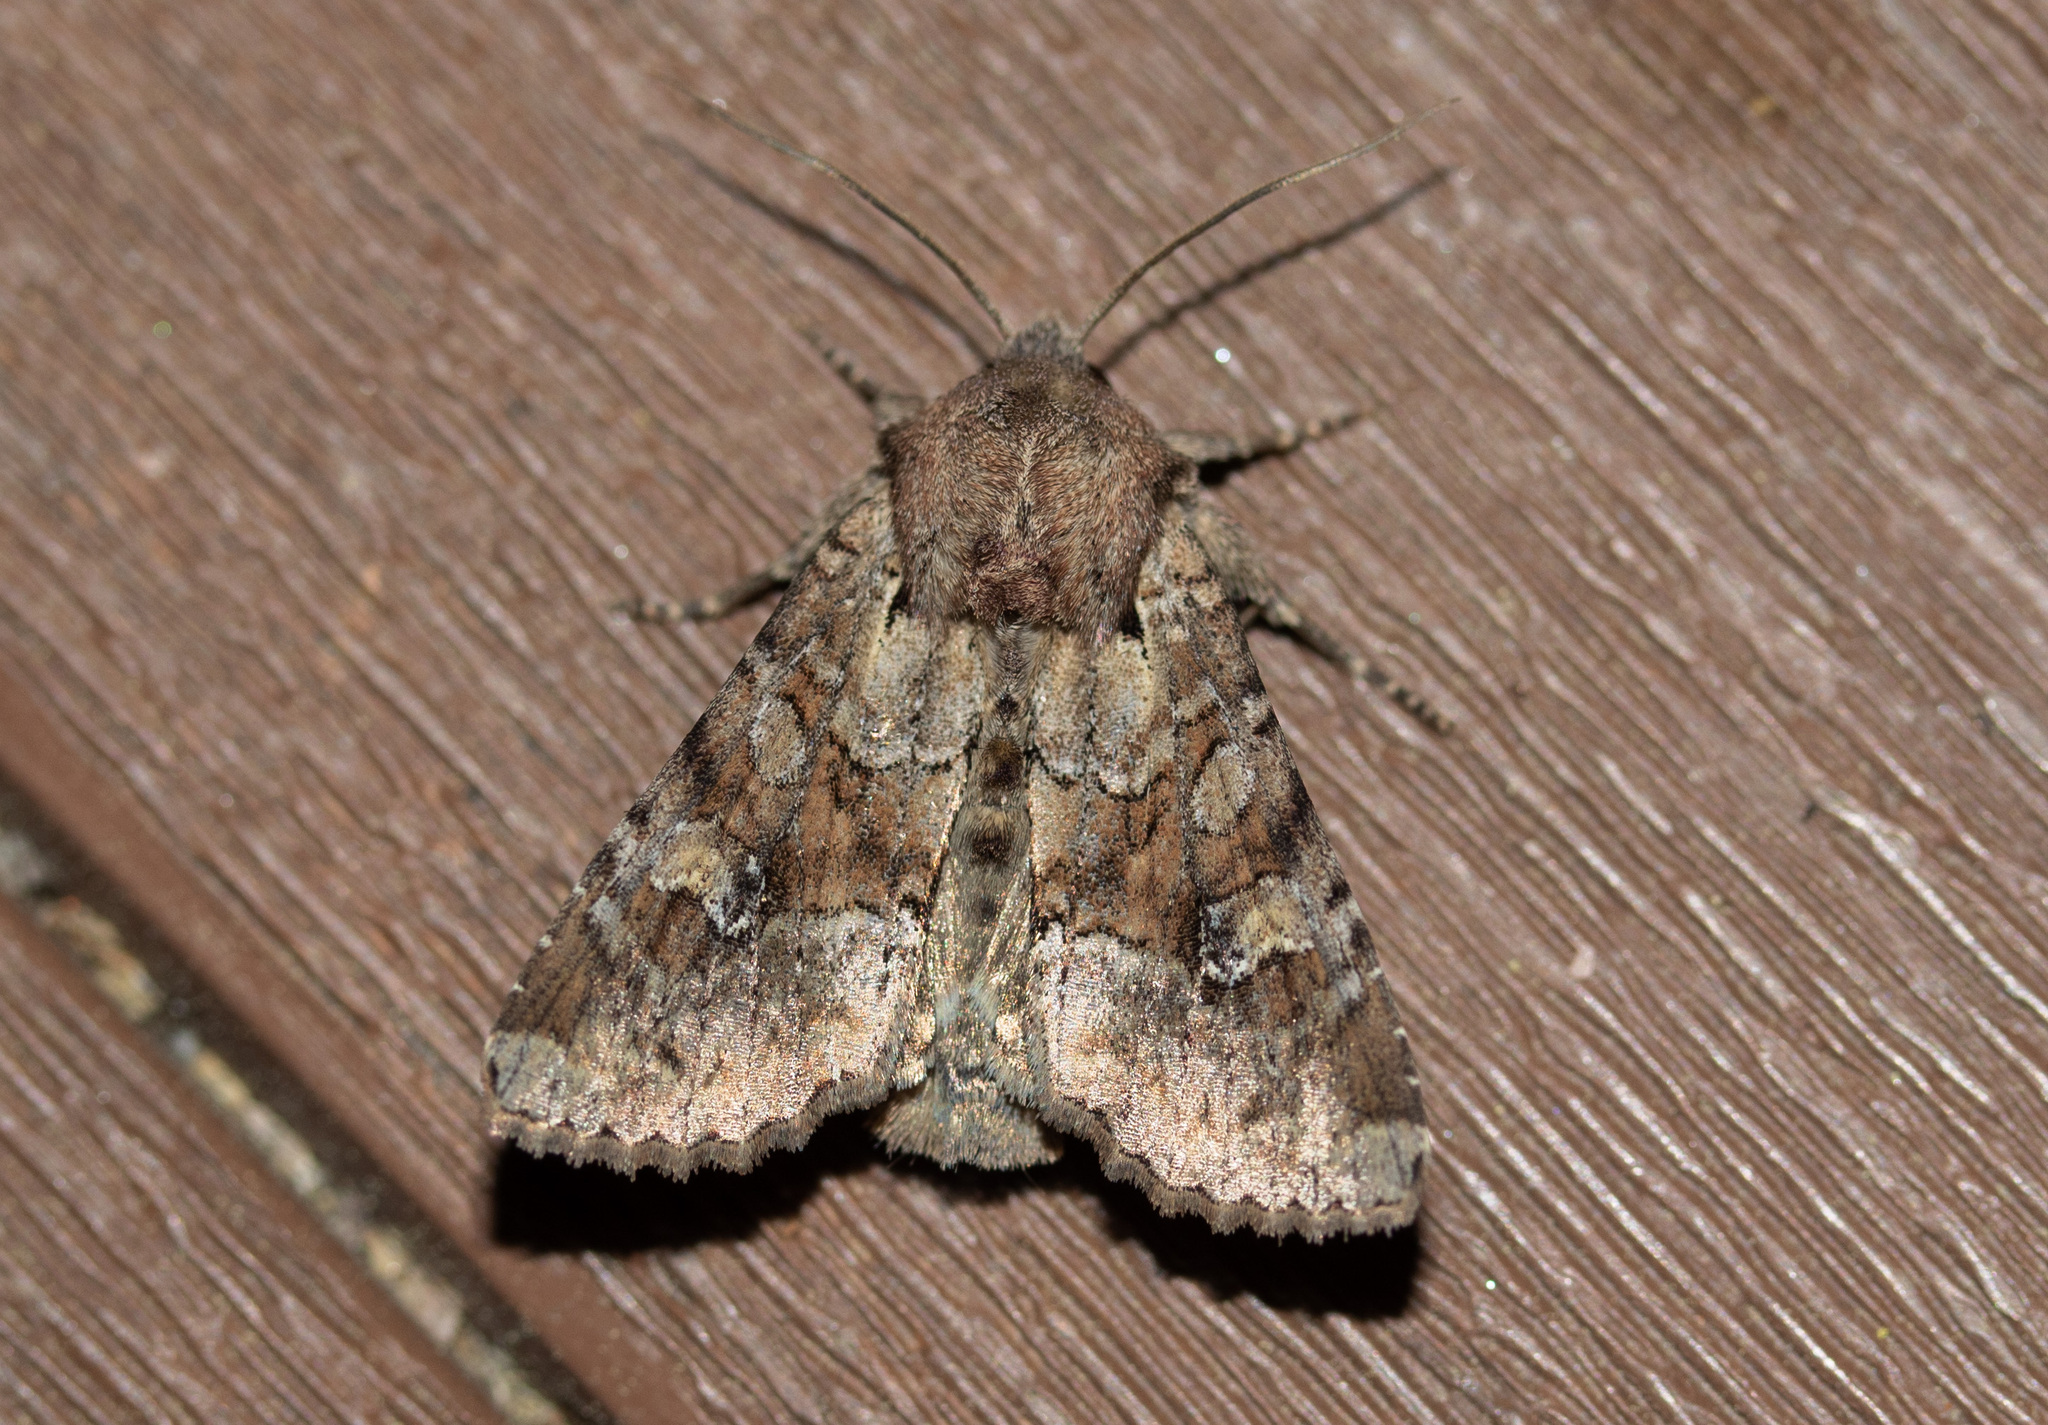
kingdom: Animalia
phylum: Arthropoda
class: Insecta
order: Lepidoptera
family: Noctuidae
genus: Apamea
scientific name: Apamea sordens
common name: Rustic shoulder-knot
